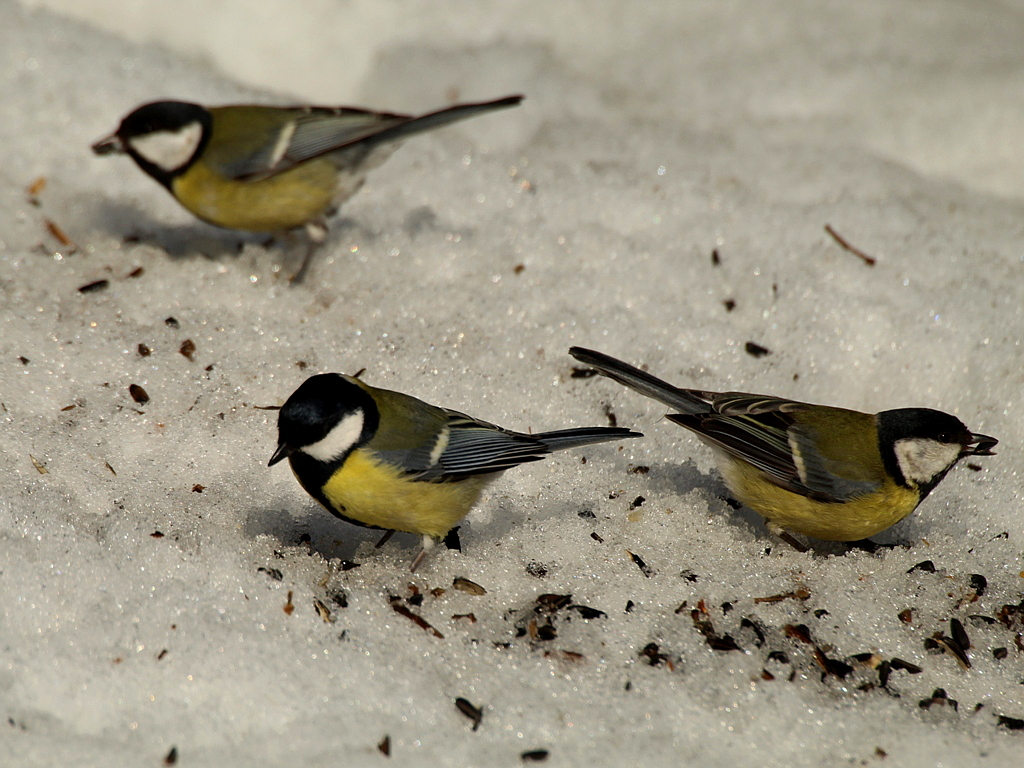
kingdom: Animalia
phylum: Chordata
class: Aves
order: Passeriformes
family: Paridae
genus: Parus
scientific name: Parus major
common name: Great tit
